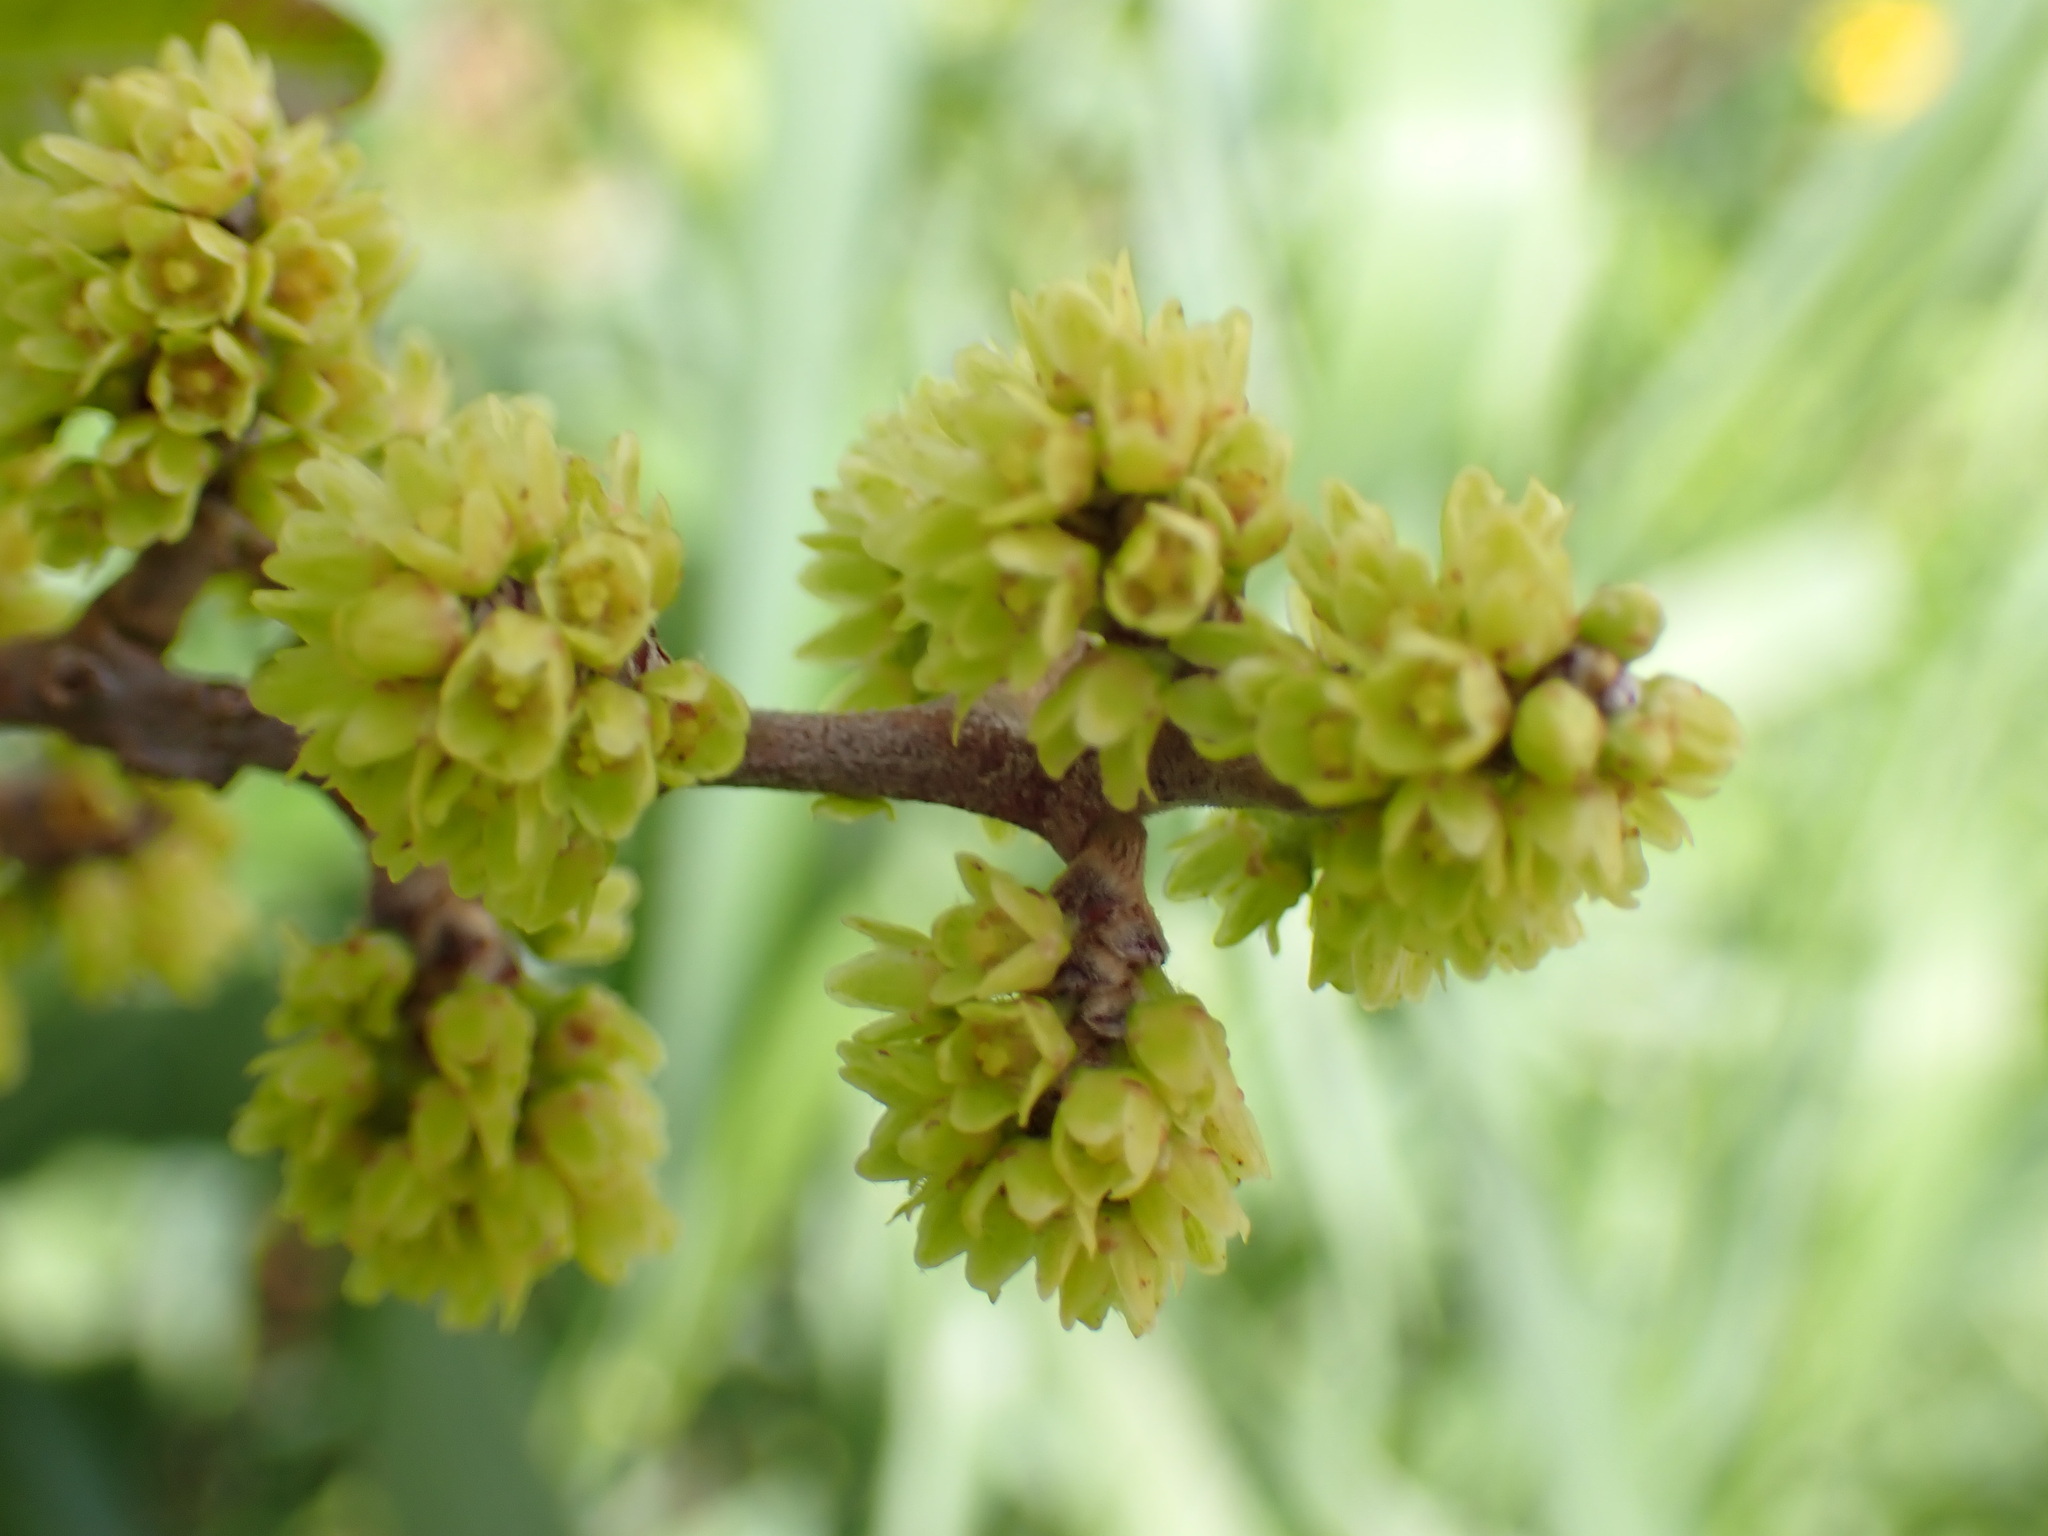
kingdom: Plantae
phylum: Tracheophyta
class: Magnoliopsida
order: Sapindales
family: Anacardiaceae
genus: Rhus
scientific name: Rhus aromatica
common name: Aromatic sumac
